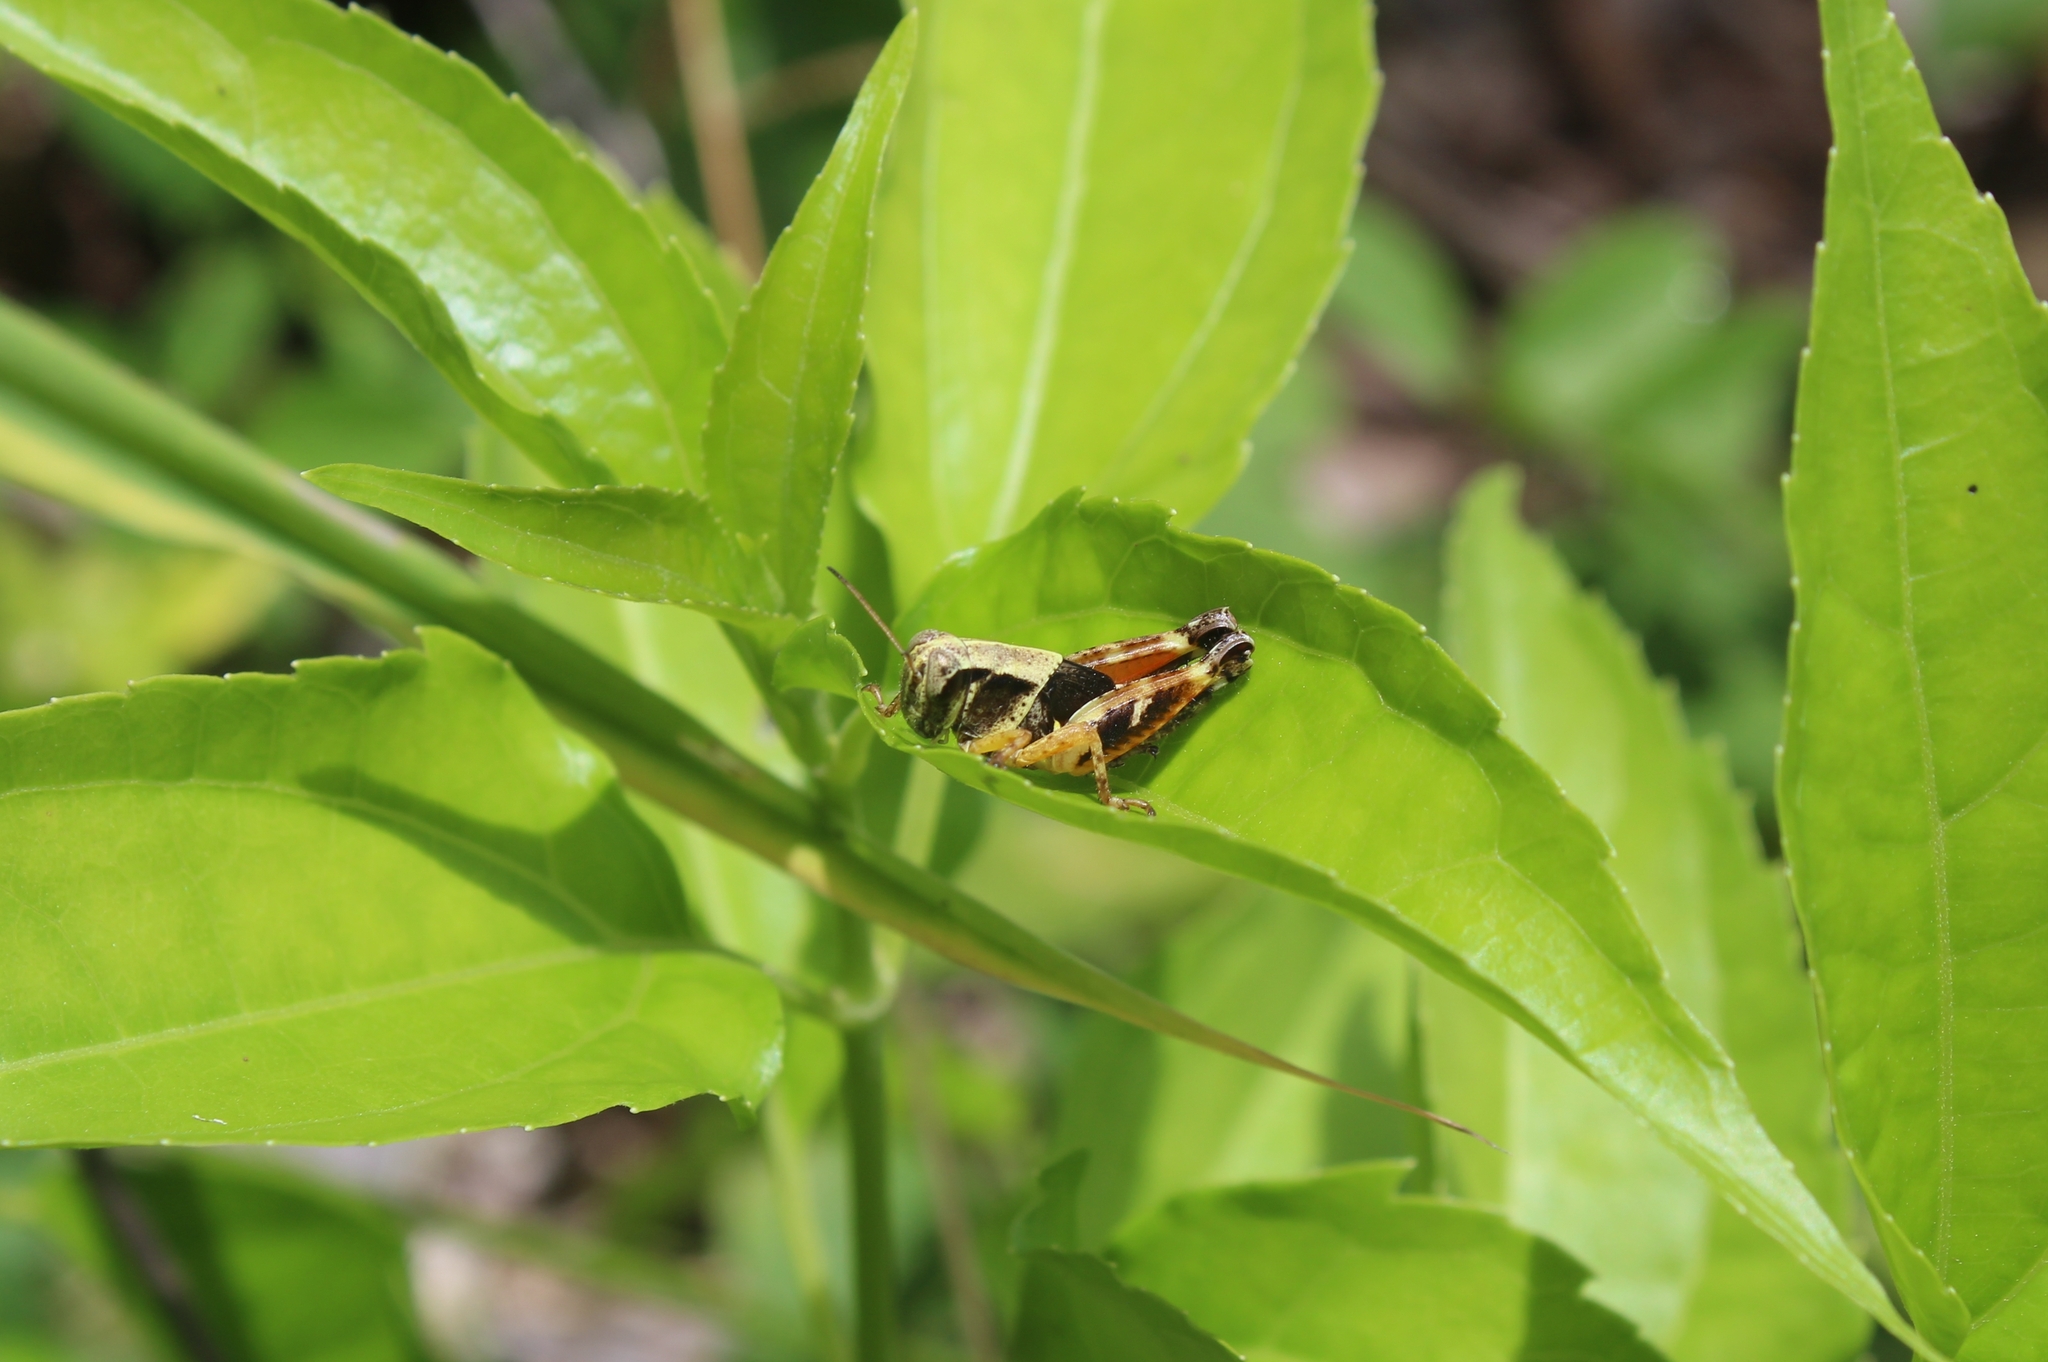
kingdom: Animalia
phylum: Arthropoda
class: Insecta
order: Orthoptera
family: Acrididae
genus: Aidemona
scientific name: Aidemona azteca
